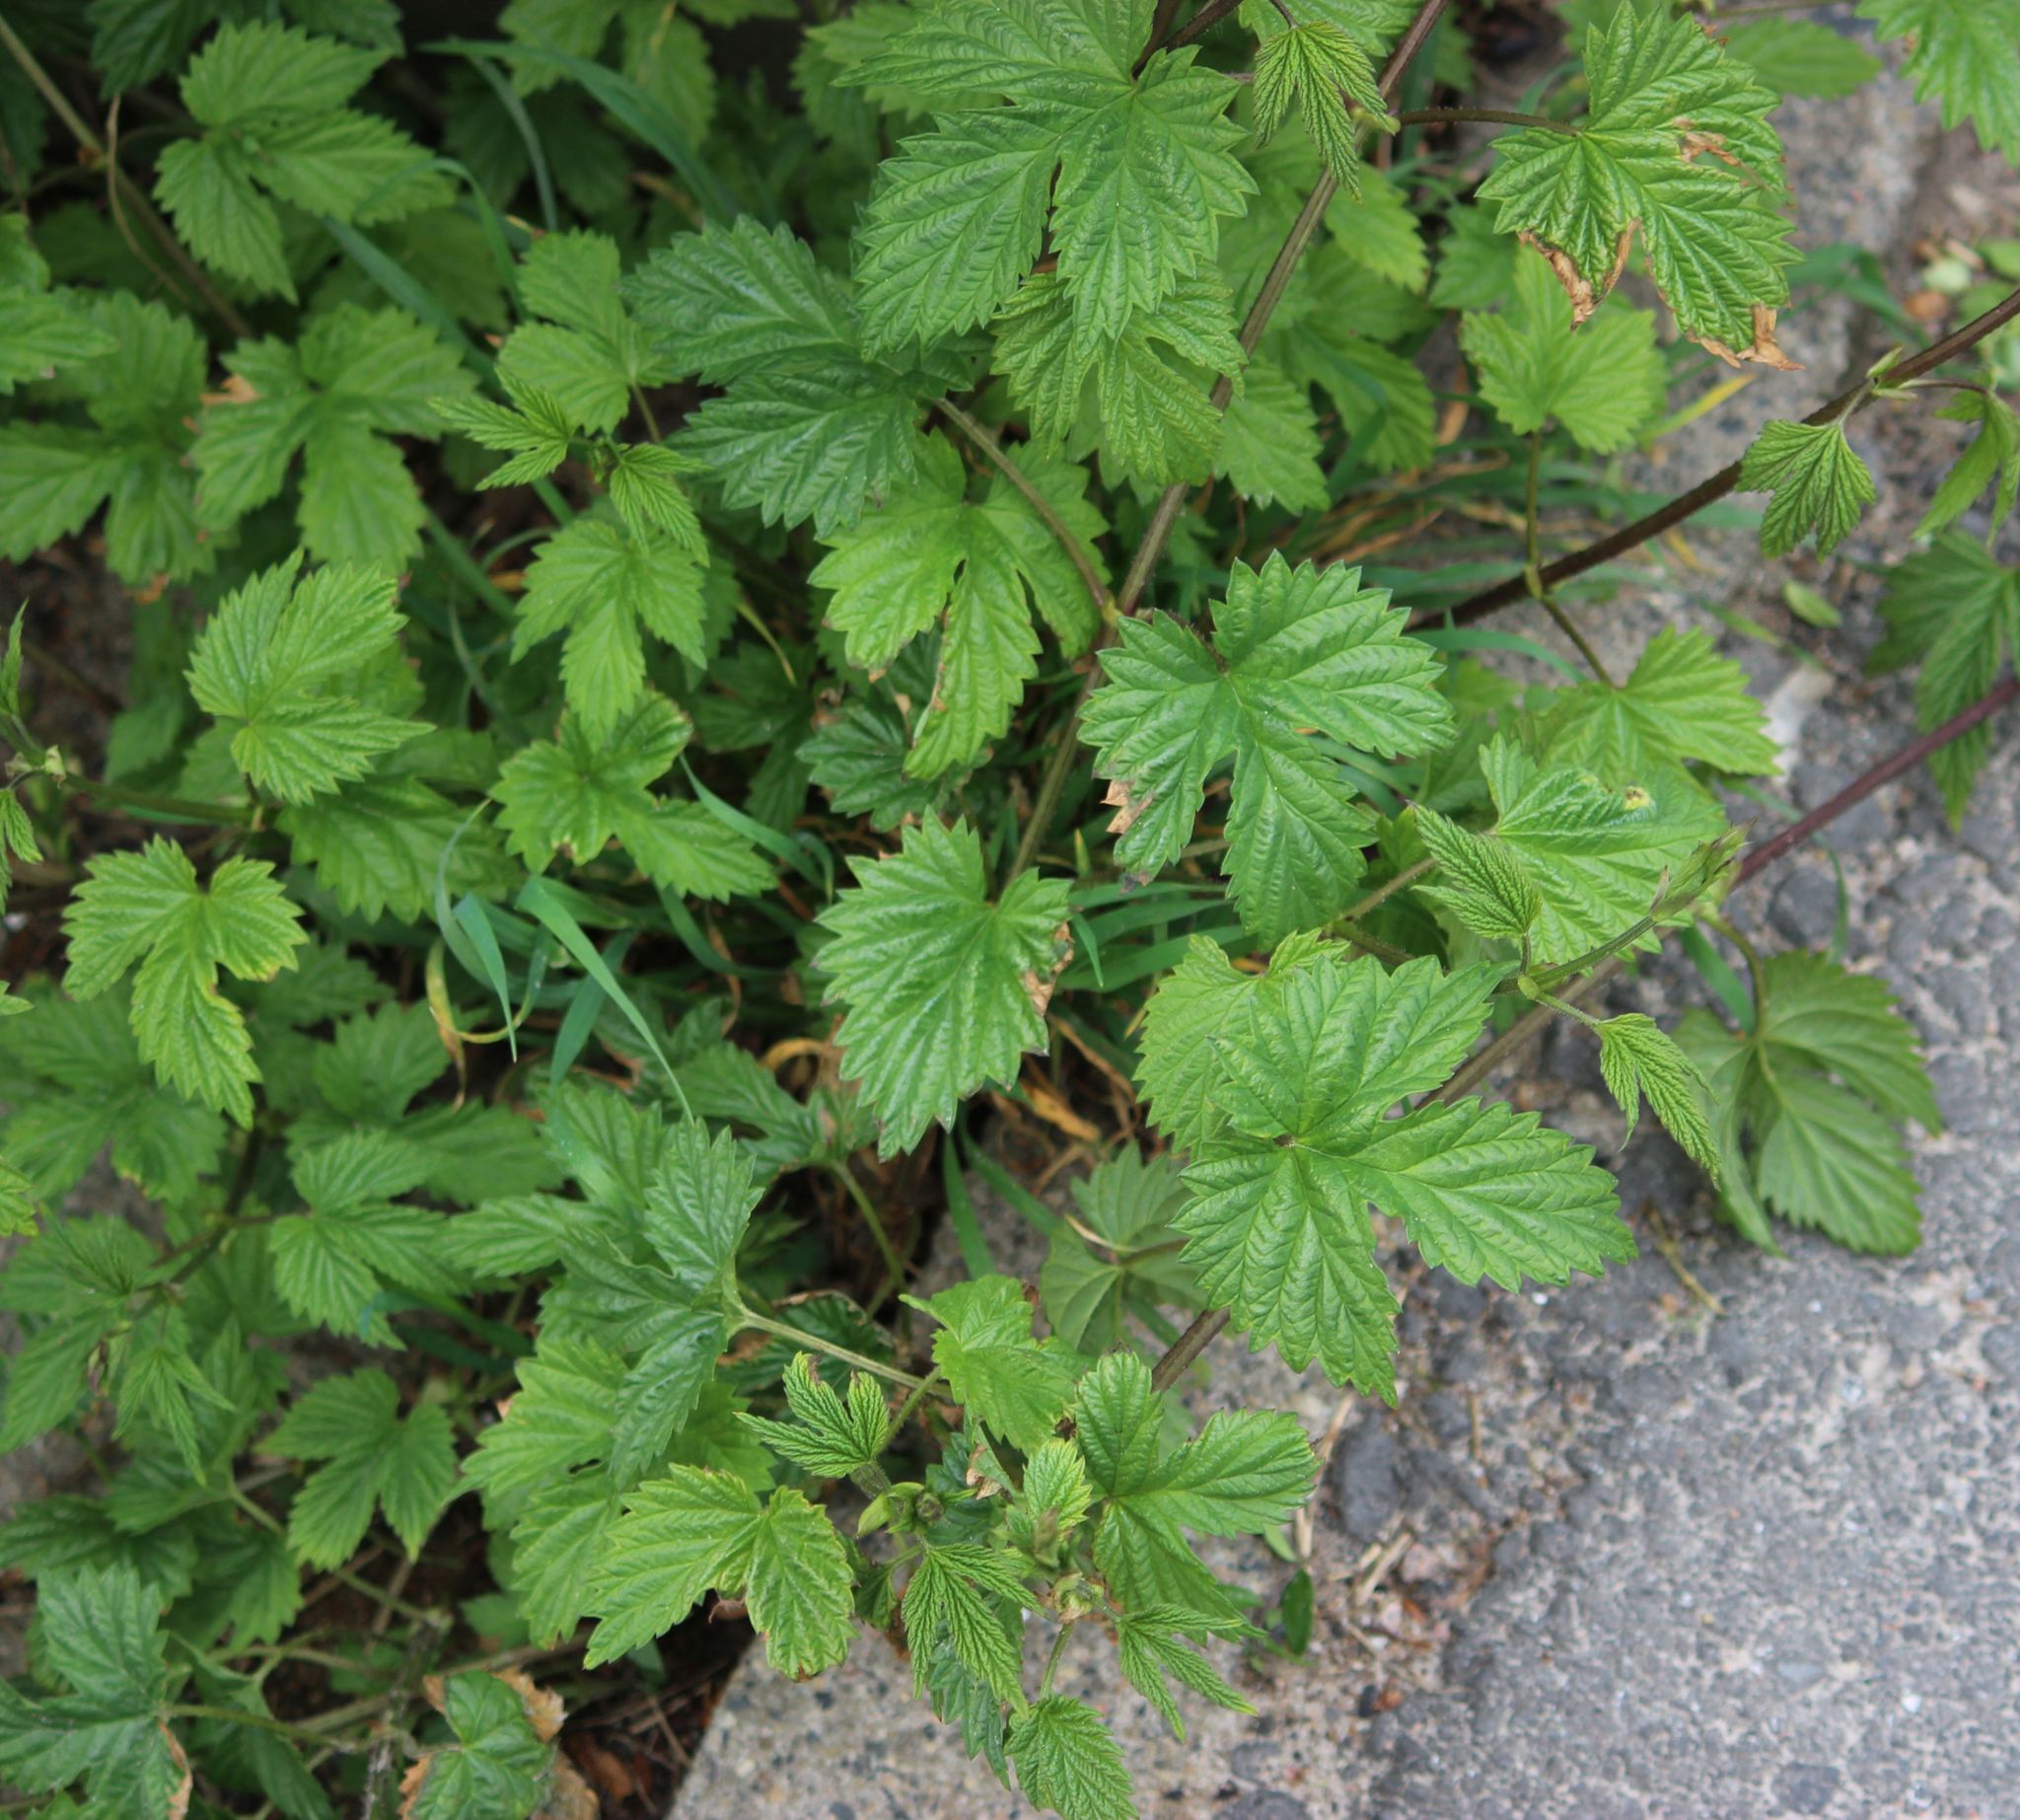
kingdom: Plantae
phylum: Tracheophyta
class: Magnoliopsida
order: Rosales
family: Cannabaceae
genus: Humulus
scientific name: Humulus lupulus
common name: Hop
